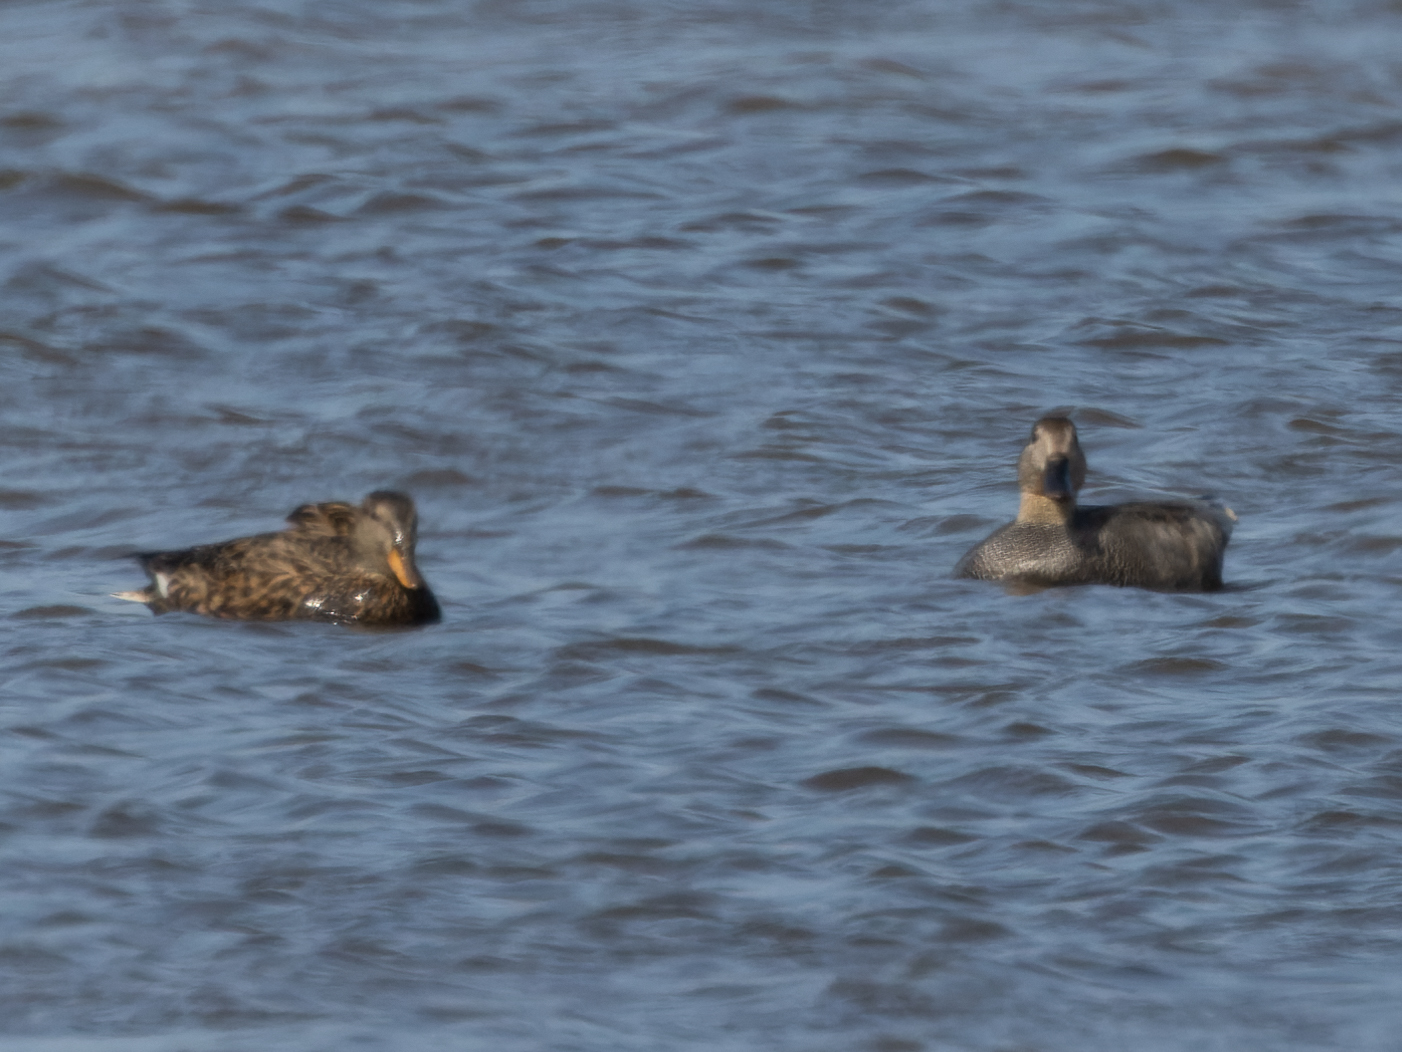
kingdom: Animalia
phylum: Chordata
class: Aves
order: Anseriformes
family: Anatidae
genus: Mareca
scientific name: Mareca strepera
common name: Gadwall
